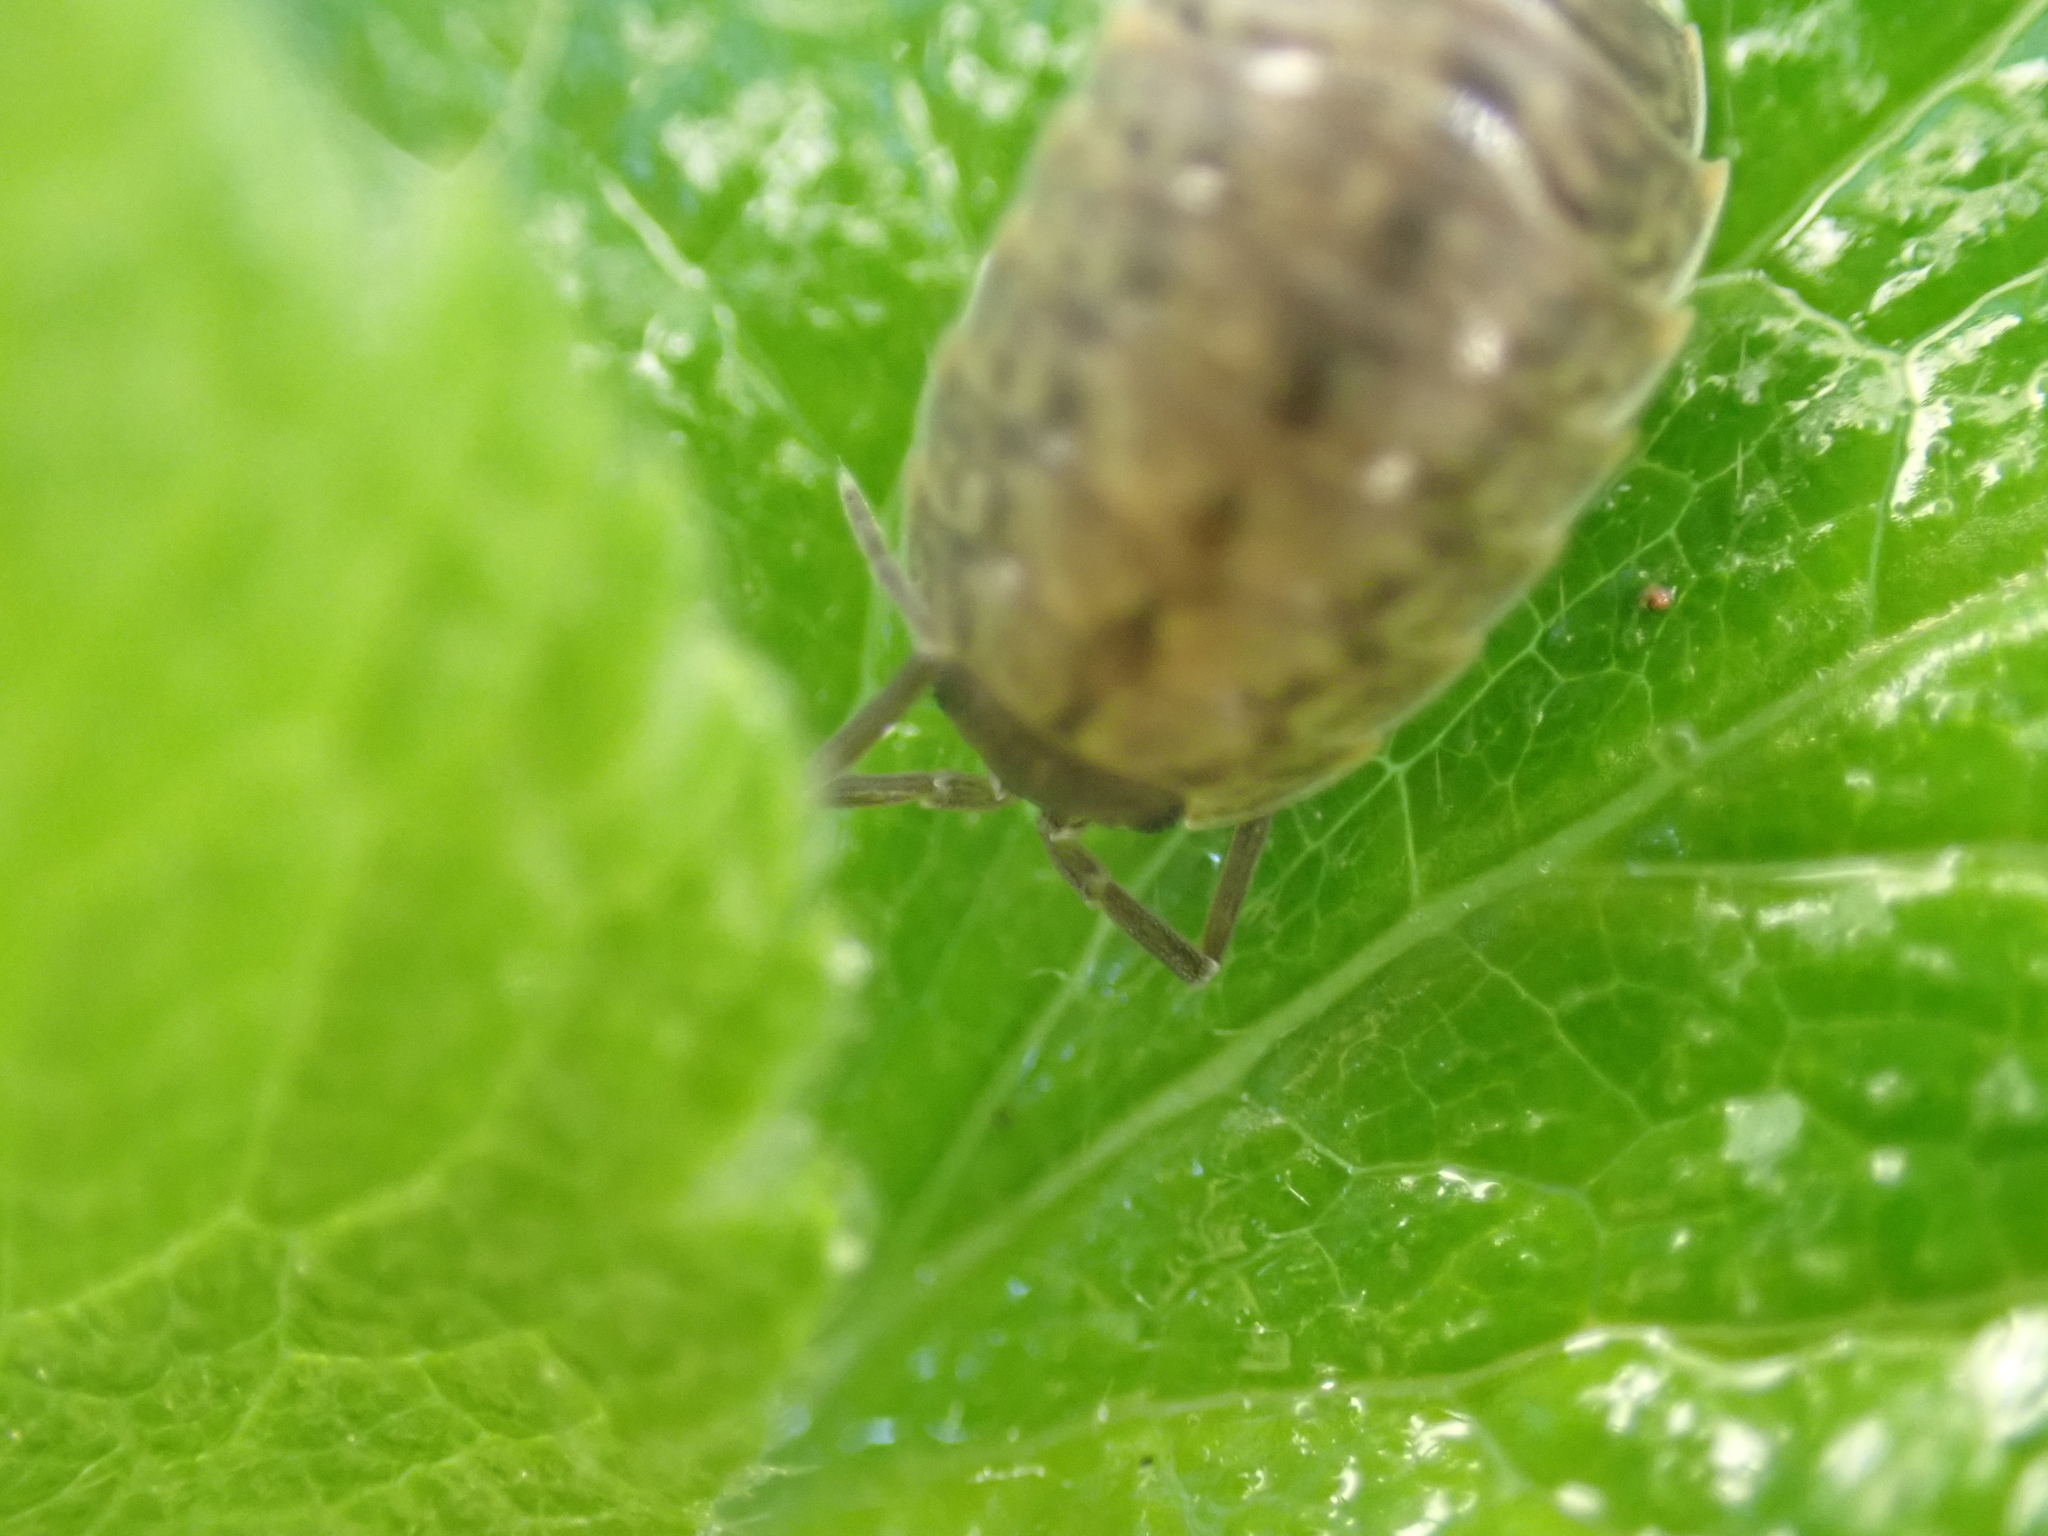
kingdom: Animalia
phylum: Arthropoda
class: Malacostraca
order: Isopoda
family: Porcellionidae
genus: Porcellio
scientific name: Porcellio monticola
